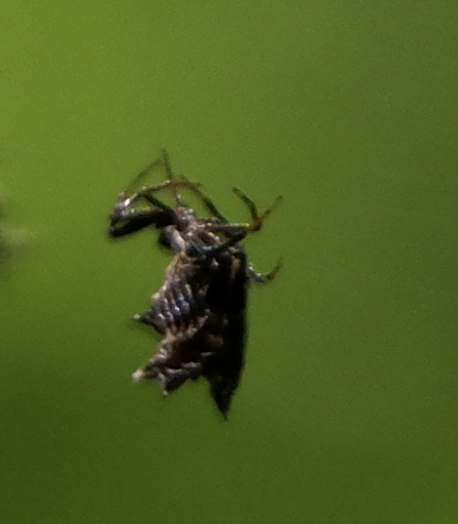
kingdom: Animalia
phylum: Arthropoda
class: Arachnida
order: Araneae
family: Araneidae
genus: Micrathena
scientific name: Micrathena gracilis
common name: Orb weavers
